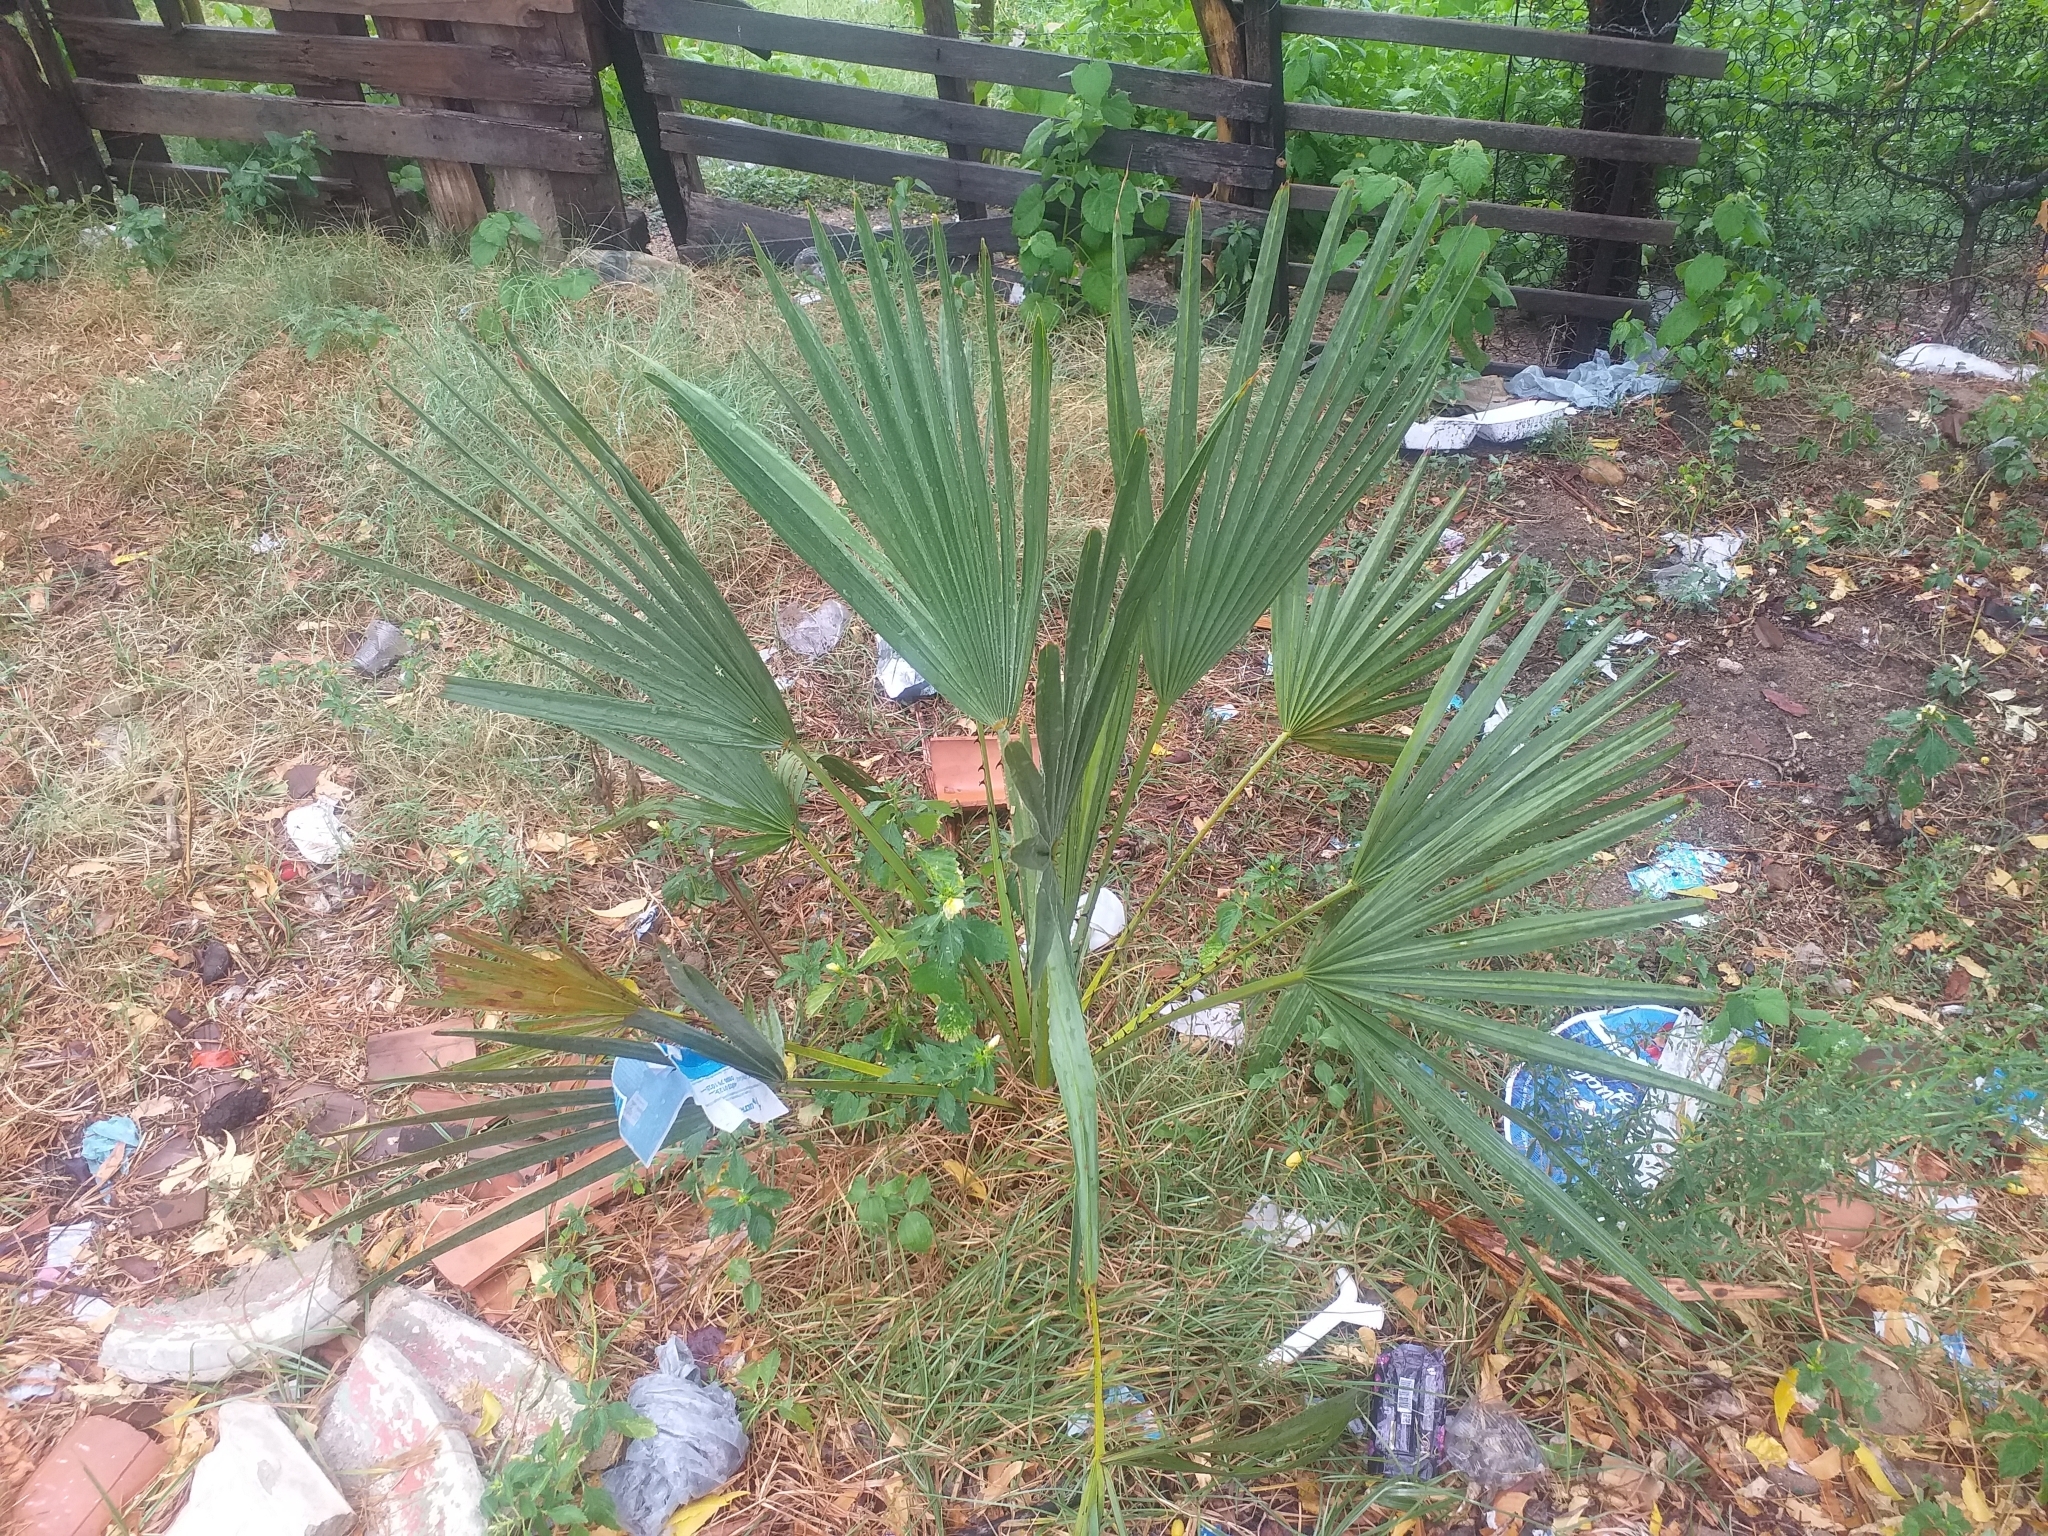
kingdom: Plantae
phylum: Tracheophyta
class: Liliopsida
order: Arecales
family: Arecaceae
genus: Copernicia
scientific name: Copernicia prunifera
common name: Carnauba palm
